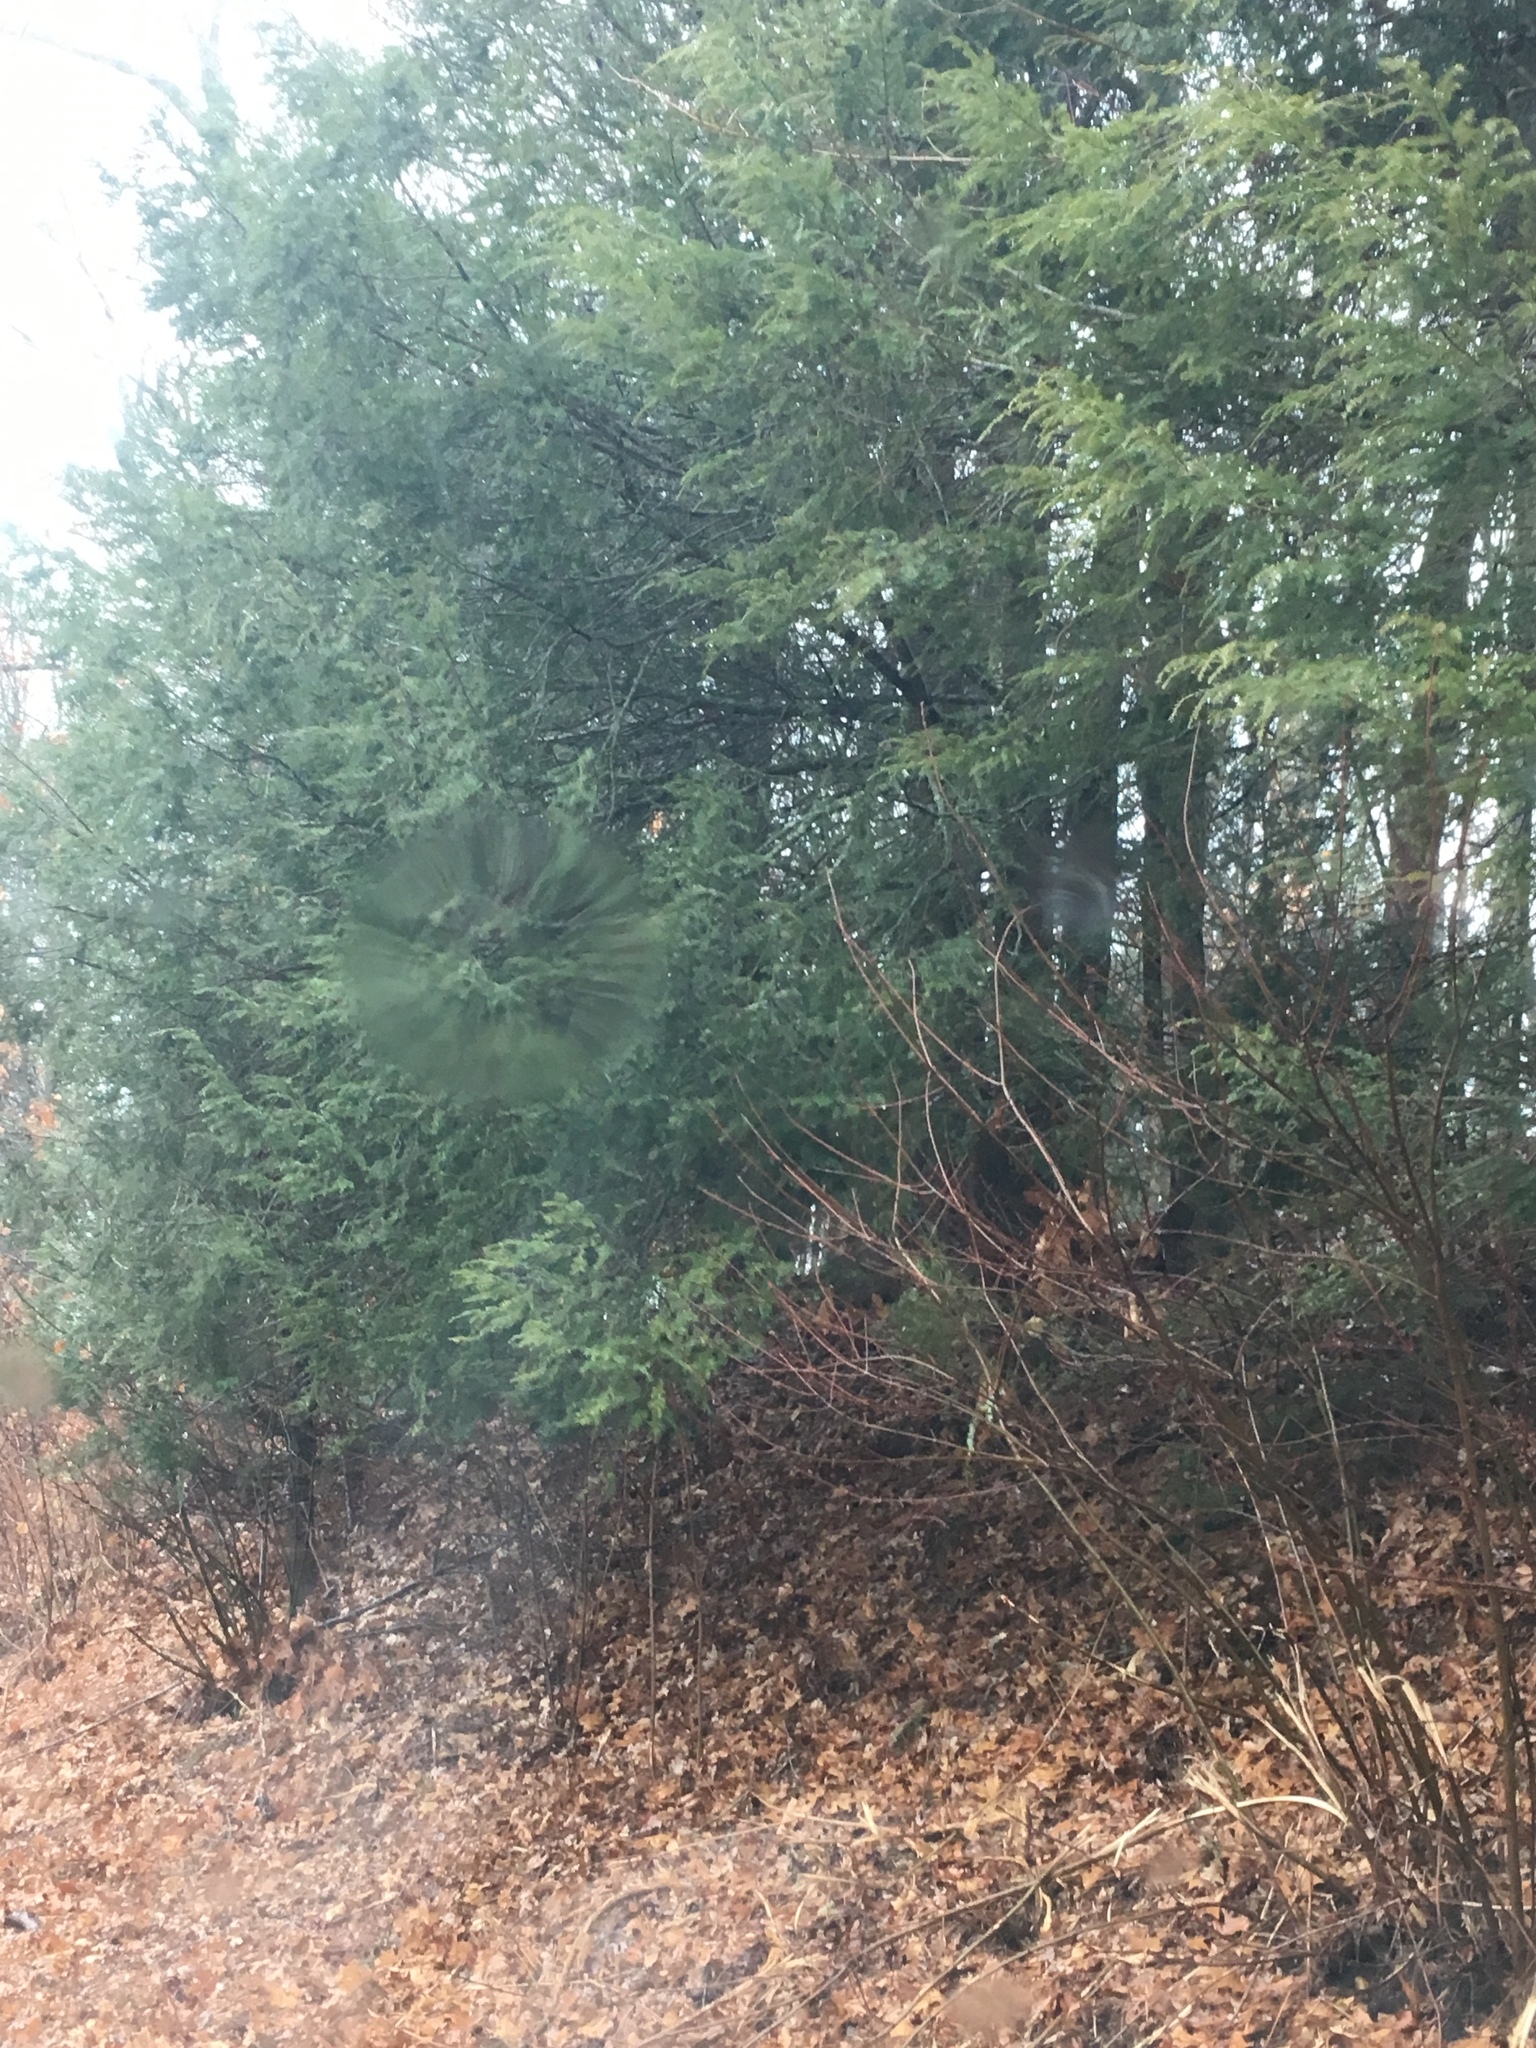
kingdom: Plantae
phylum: Tracheophyta
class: Pinopsida
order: Pinales
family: Pinaceae
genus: Tsuga
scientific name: Tsuga canadensis
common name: Eastern hemlock
